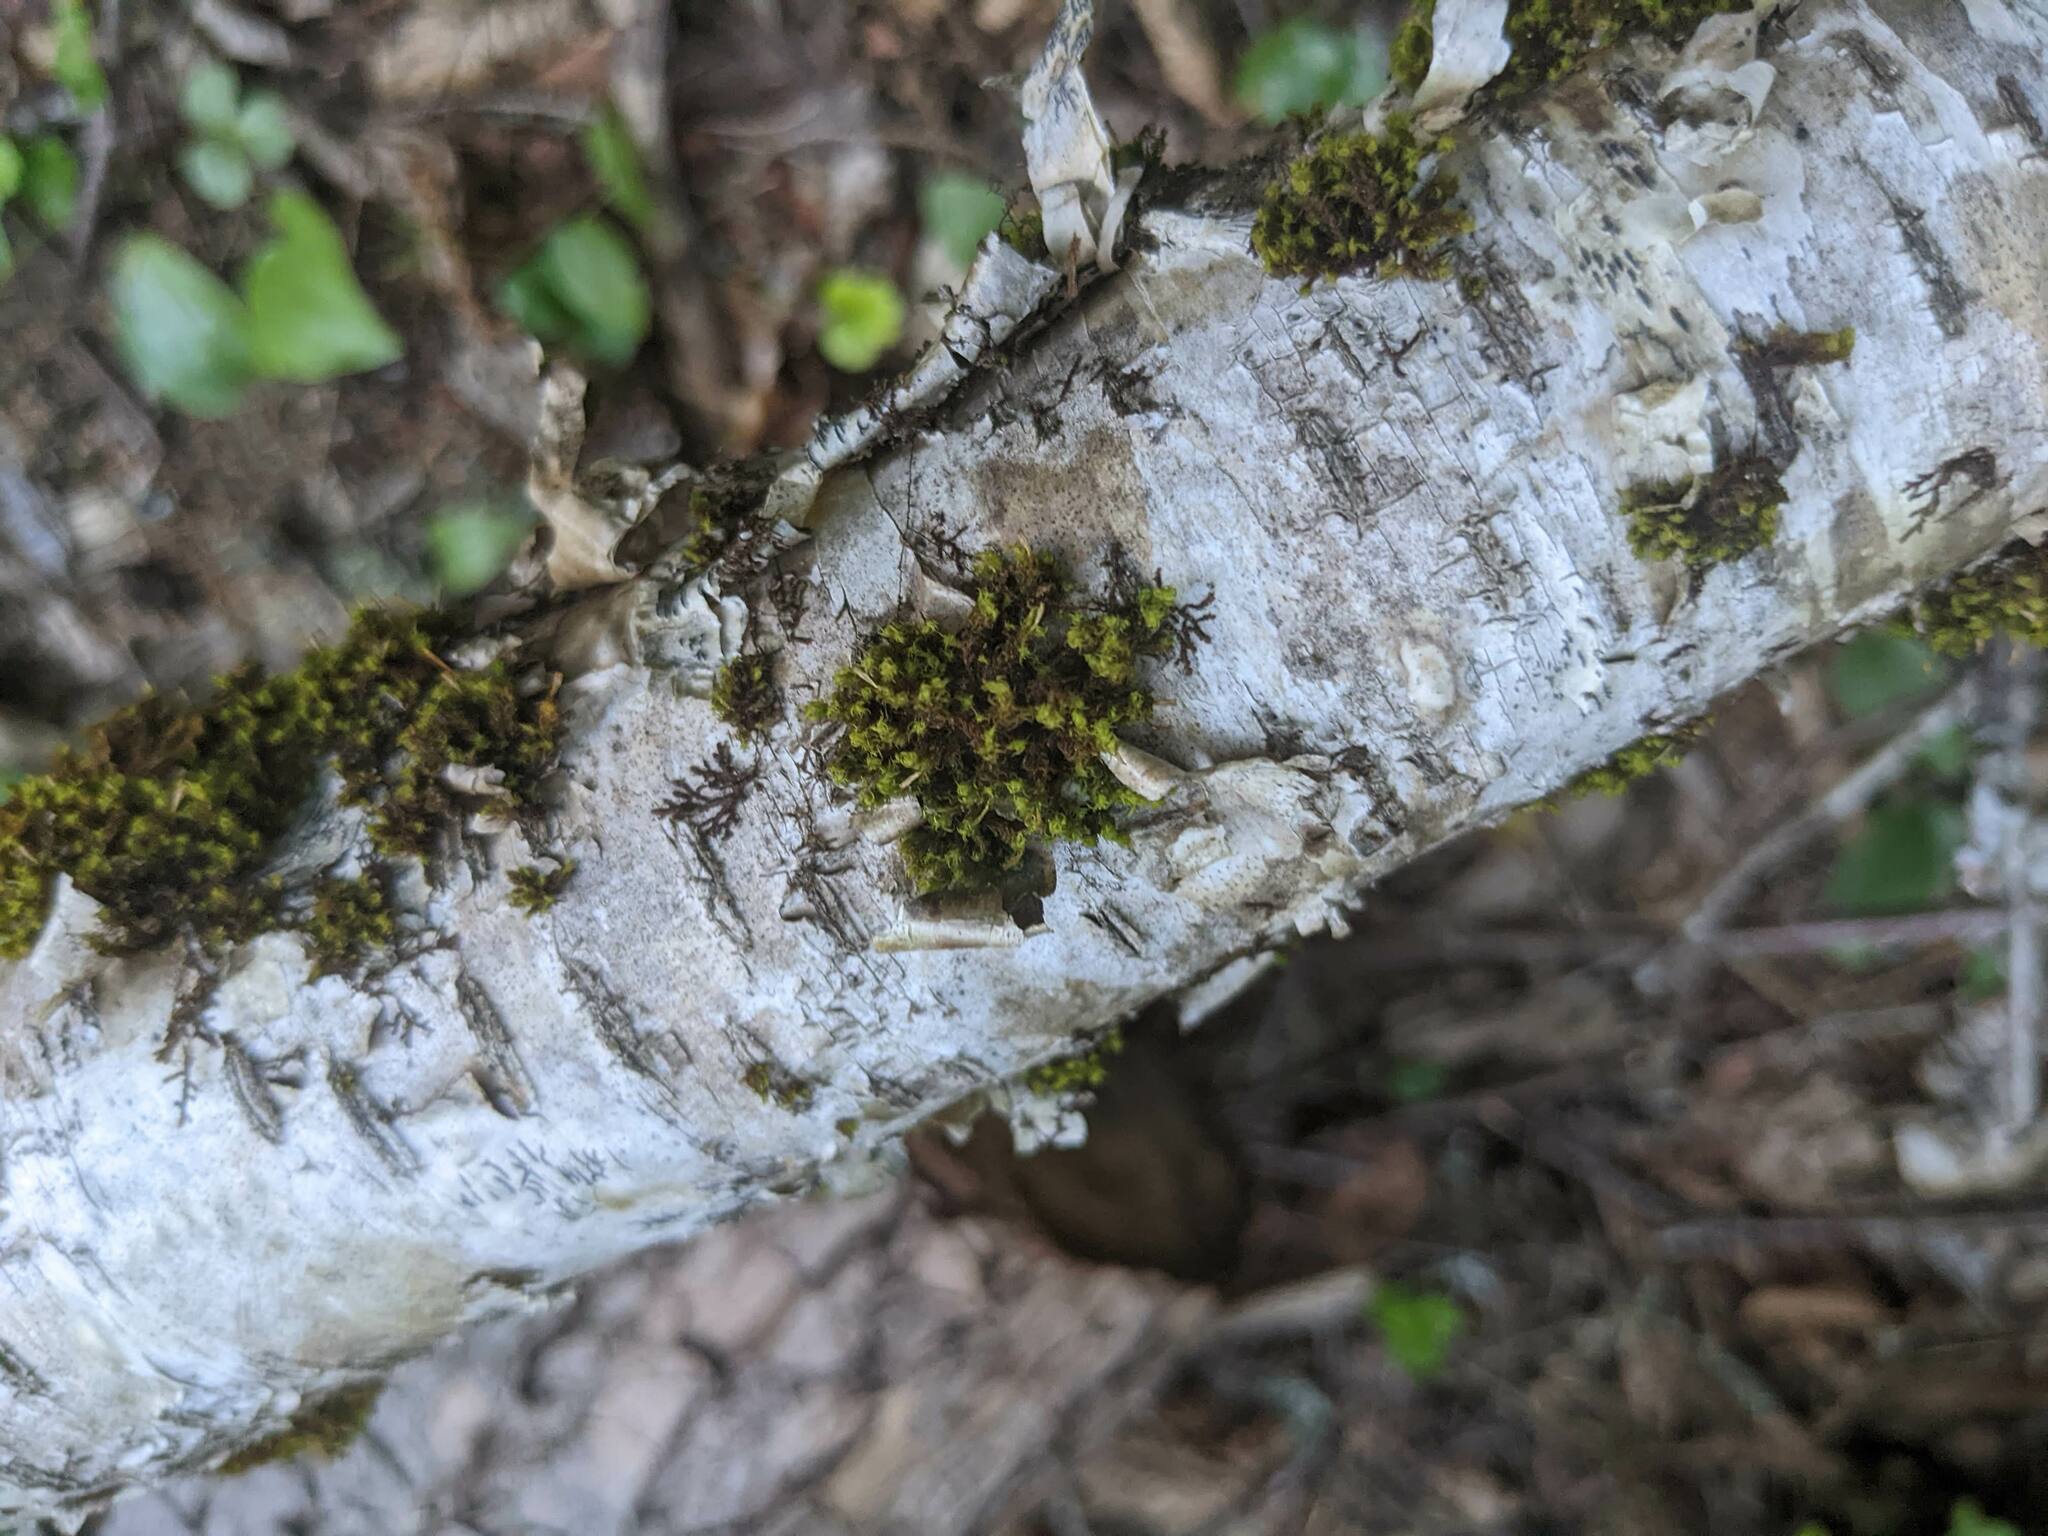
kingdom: Plantae
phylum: Bryophyta
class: Bryopsida
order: Orthotrichales
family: Orthotrichaceae
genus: Ulota
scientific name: Ulota crispa
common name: Crisped pincushion moss
